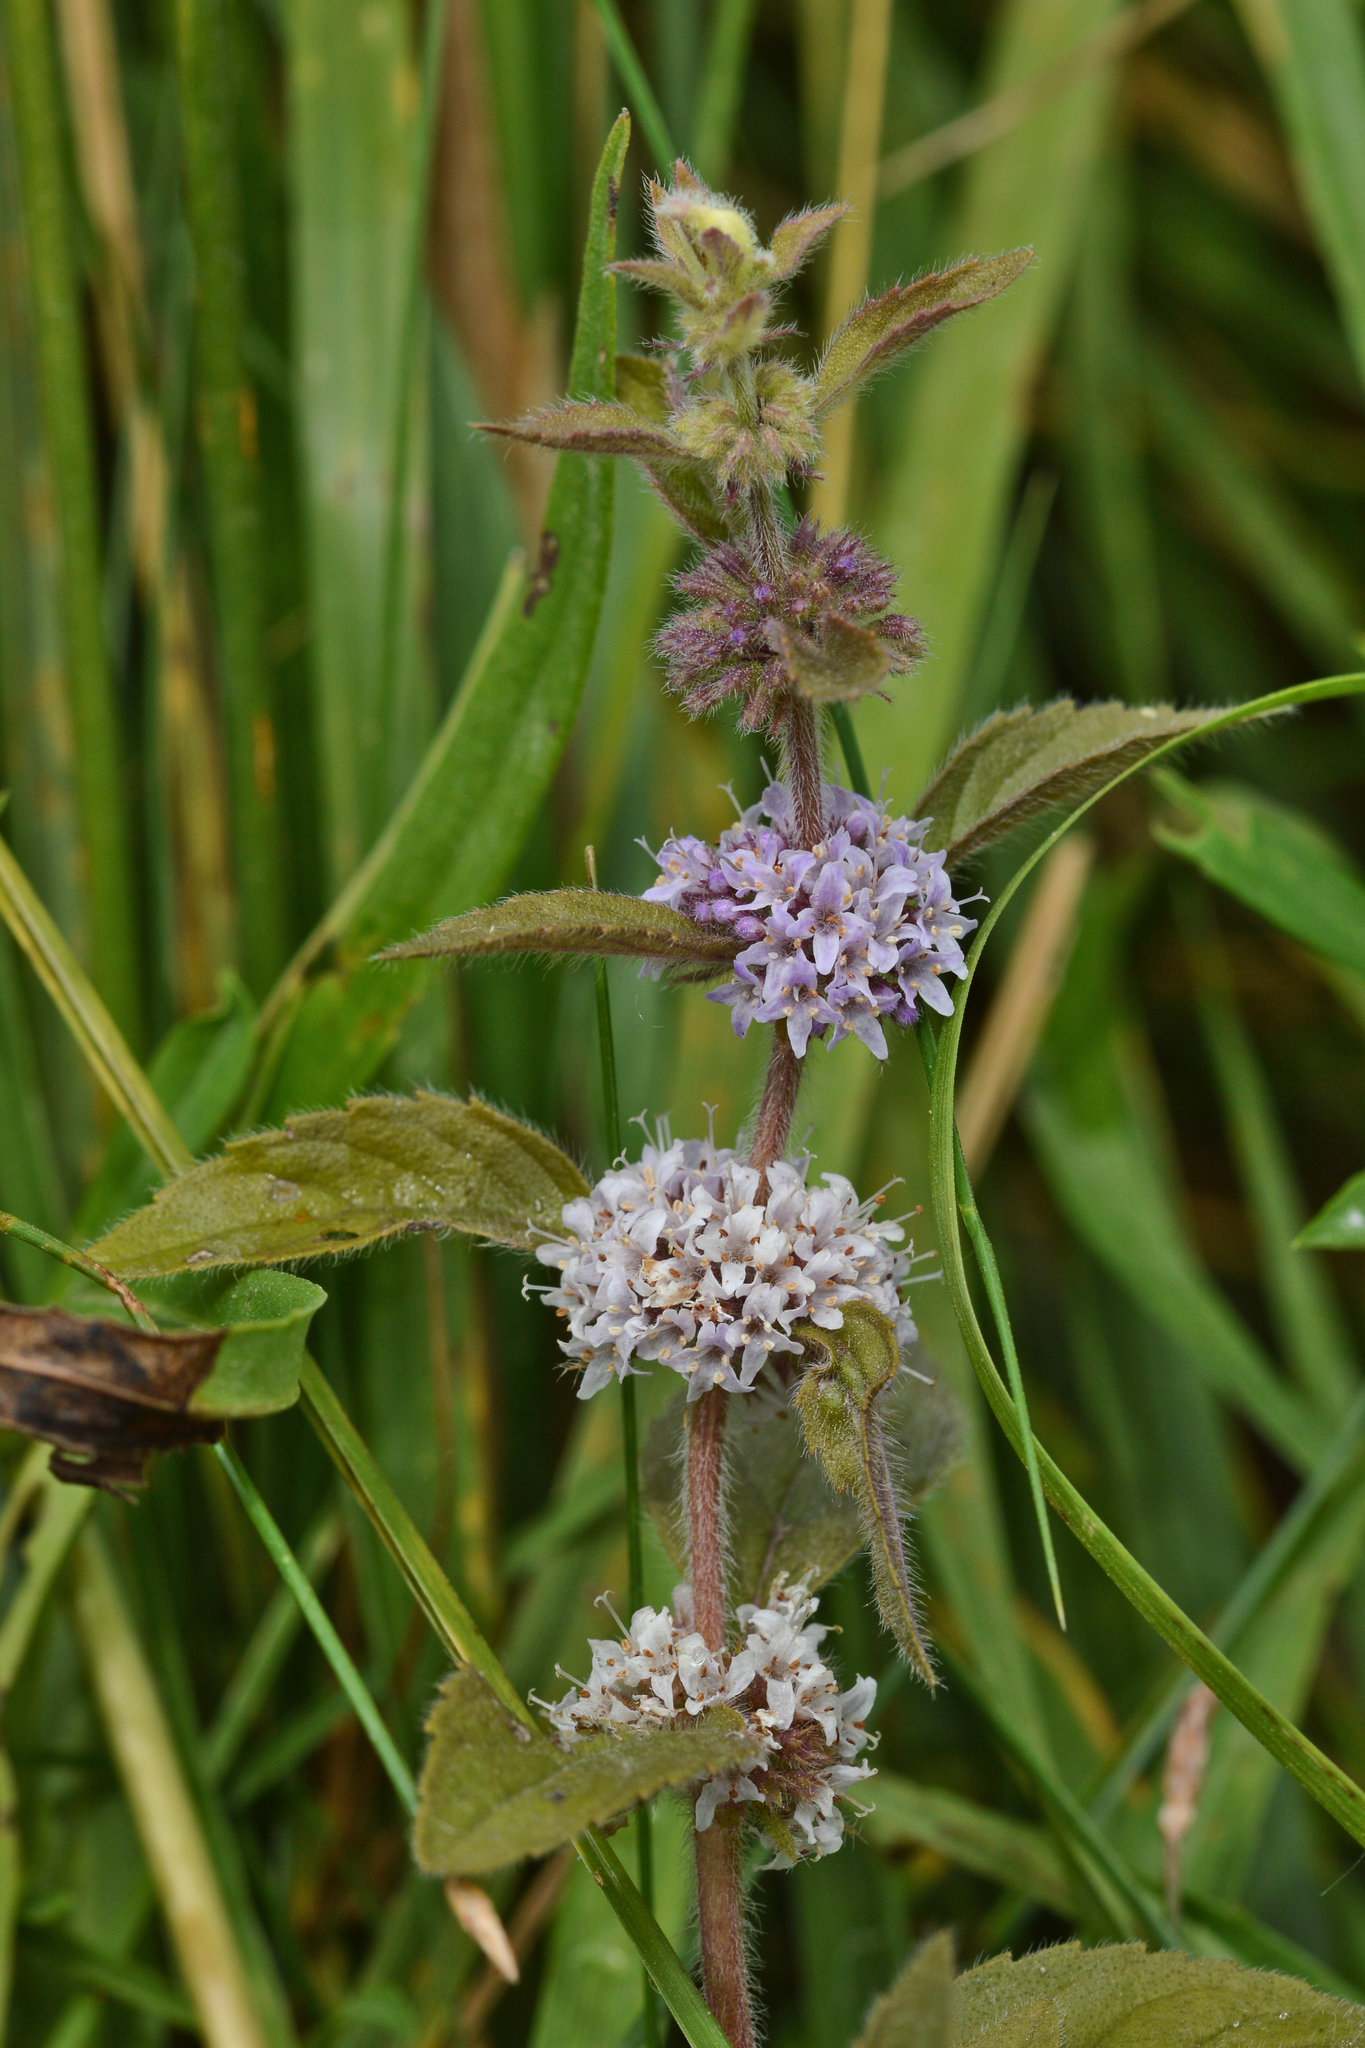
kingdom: Plantae
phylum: Tracheophyta
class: Magnoliopsida
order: Lamiales
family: Lamiaceae
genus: Mentha
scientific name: Mentha canadensis
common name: American corn mint
